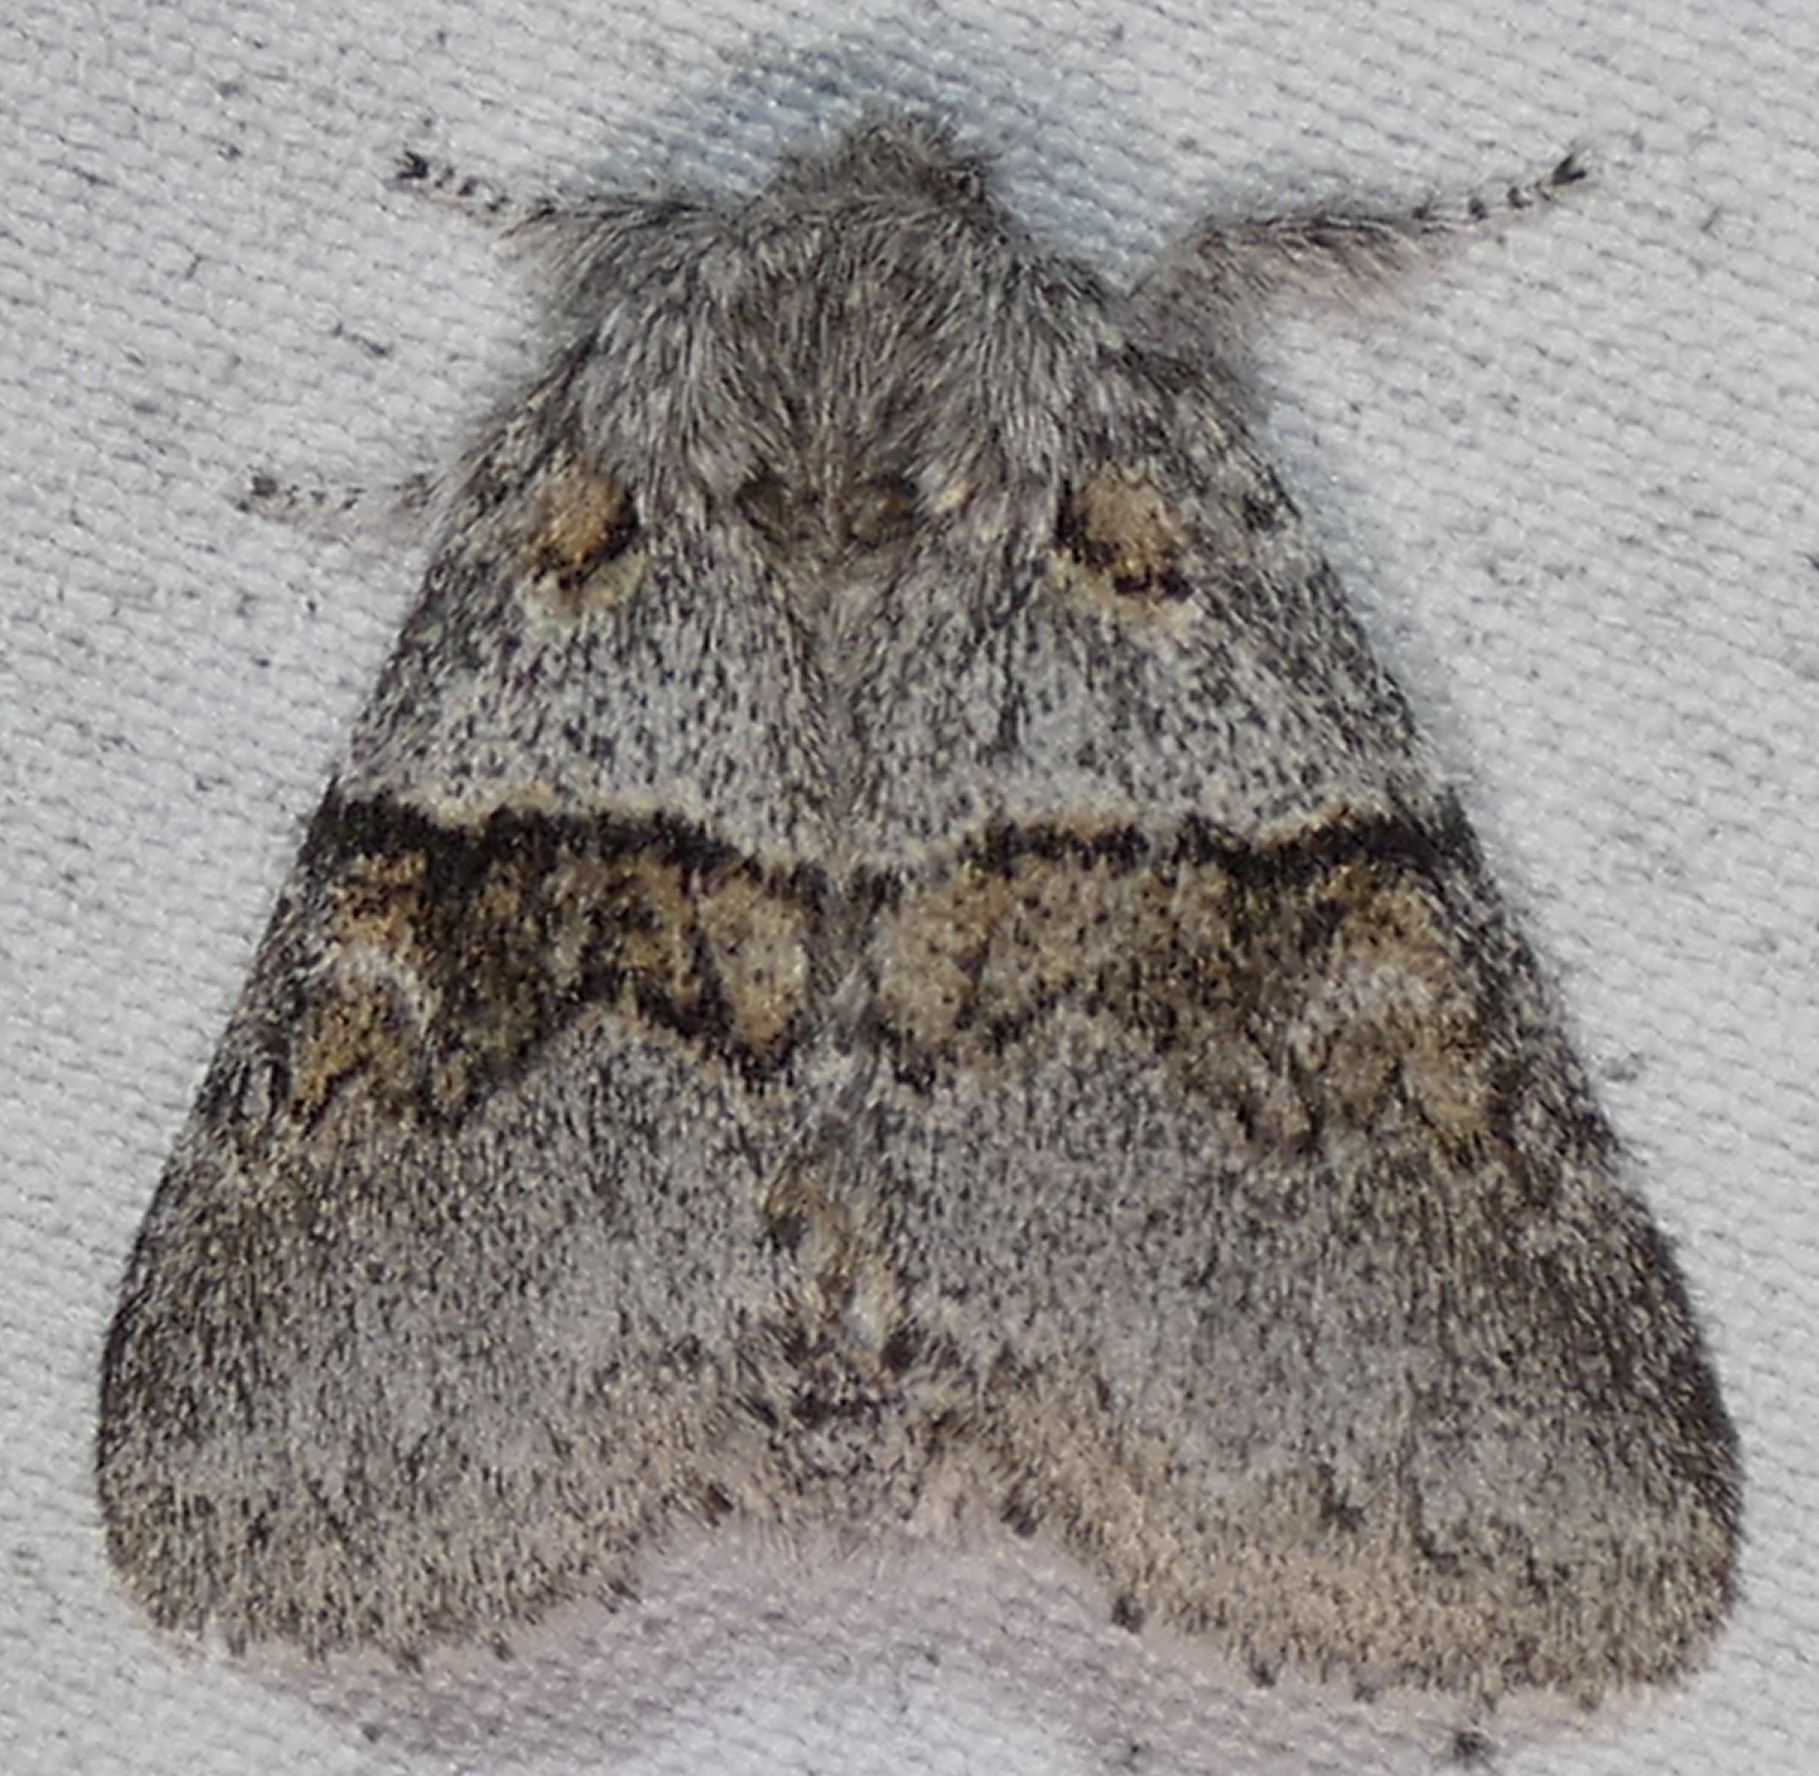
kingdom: Animalia
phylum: Arthropoda
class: Insecta
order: Lepidoptera
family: Notodontidae
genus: Gluphisia
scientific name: Gluphisia septentrionis
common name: Common gluphisia
